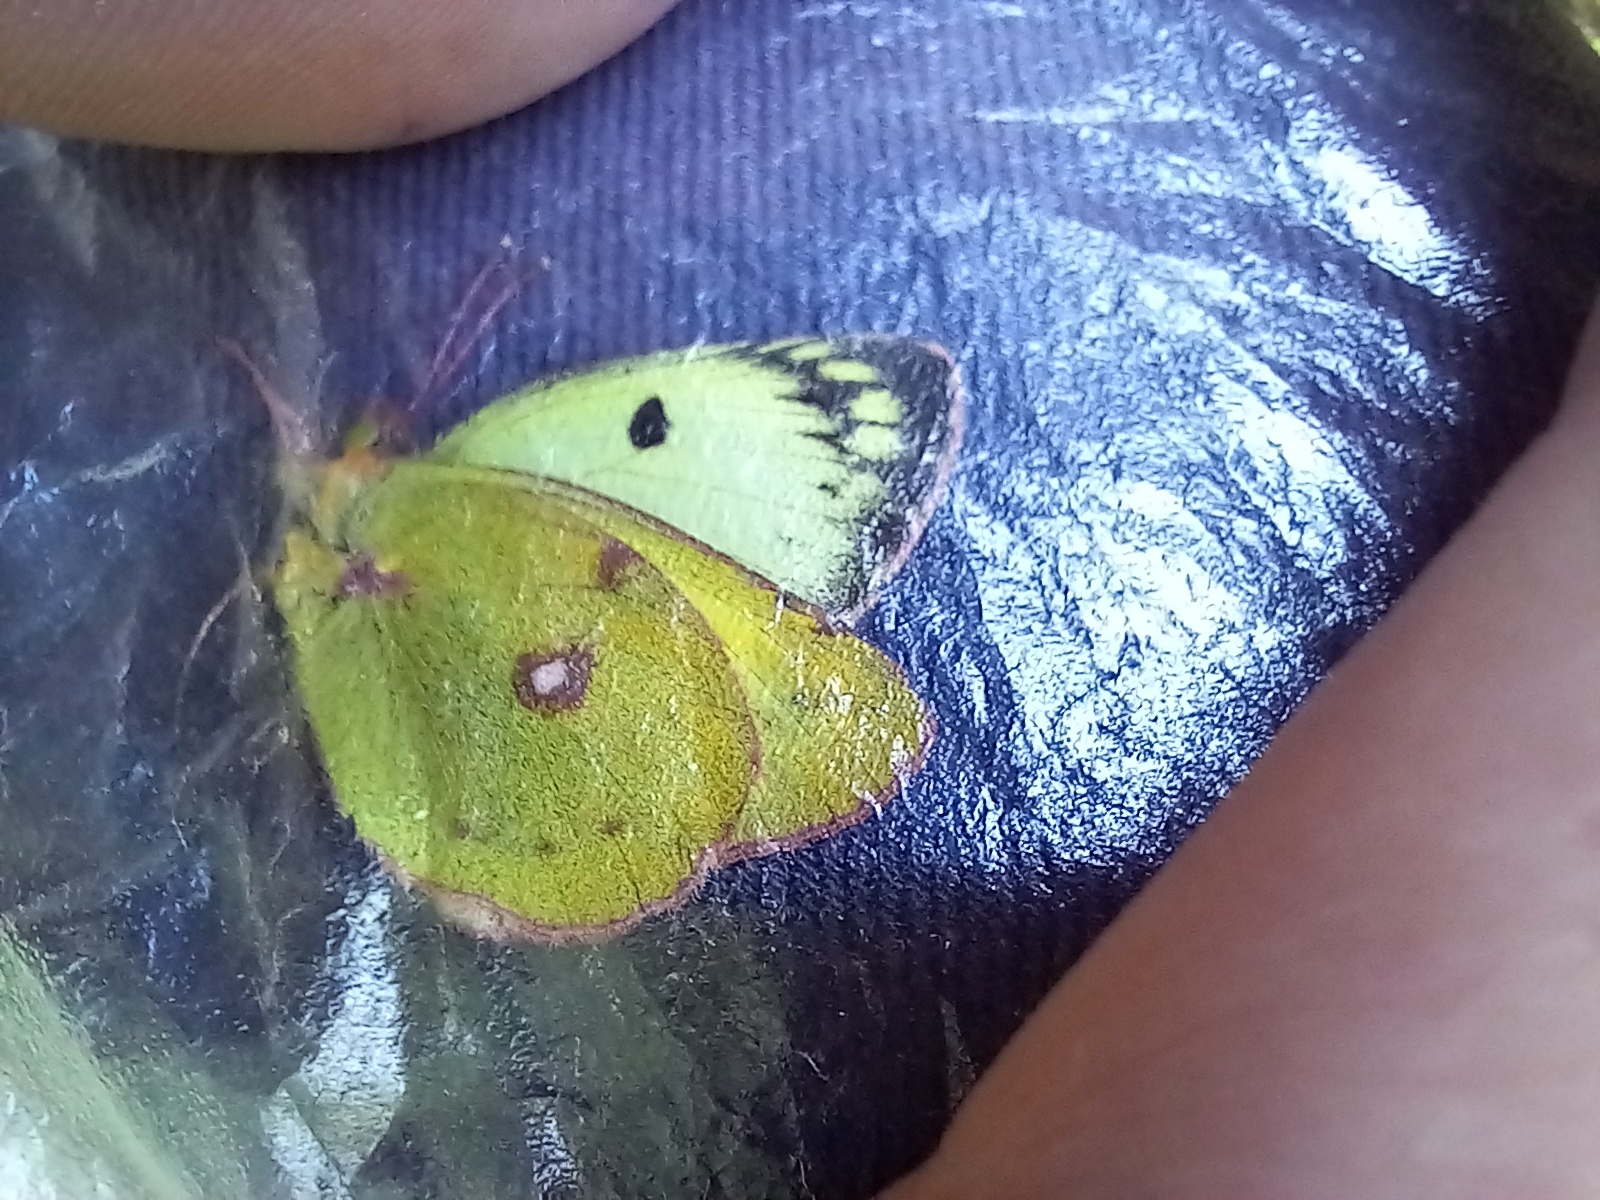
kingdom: Animalia
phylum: Arthropoda
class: Insecta
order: Lepidoptera
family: Pieridae
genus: Colias
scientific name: Colias alfacariensis
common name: Berger's clouded yellow
